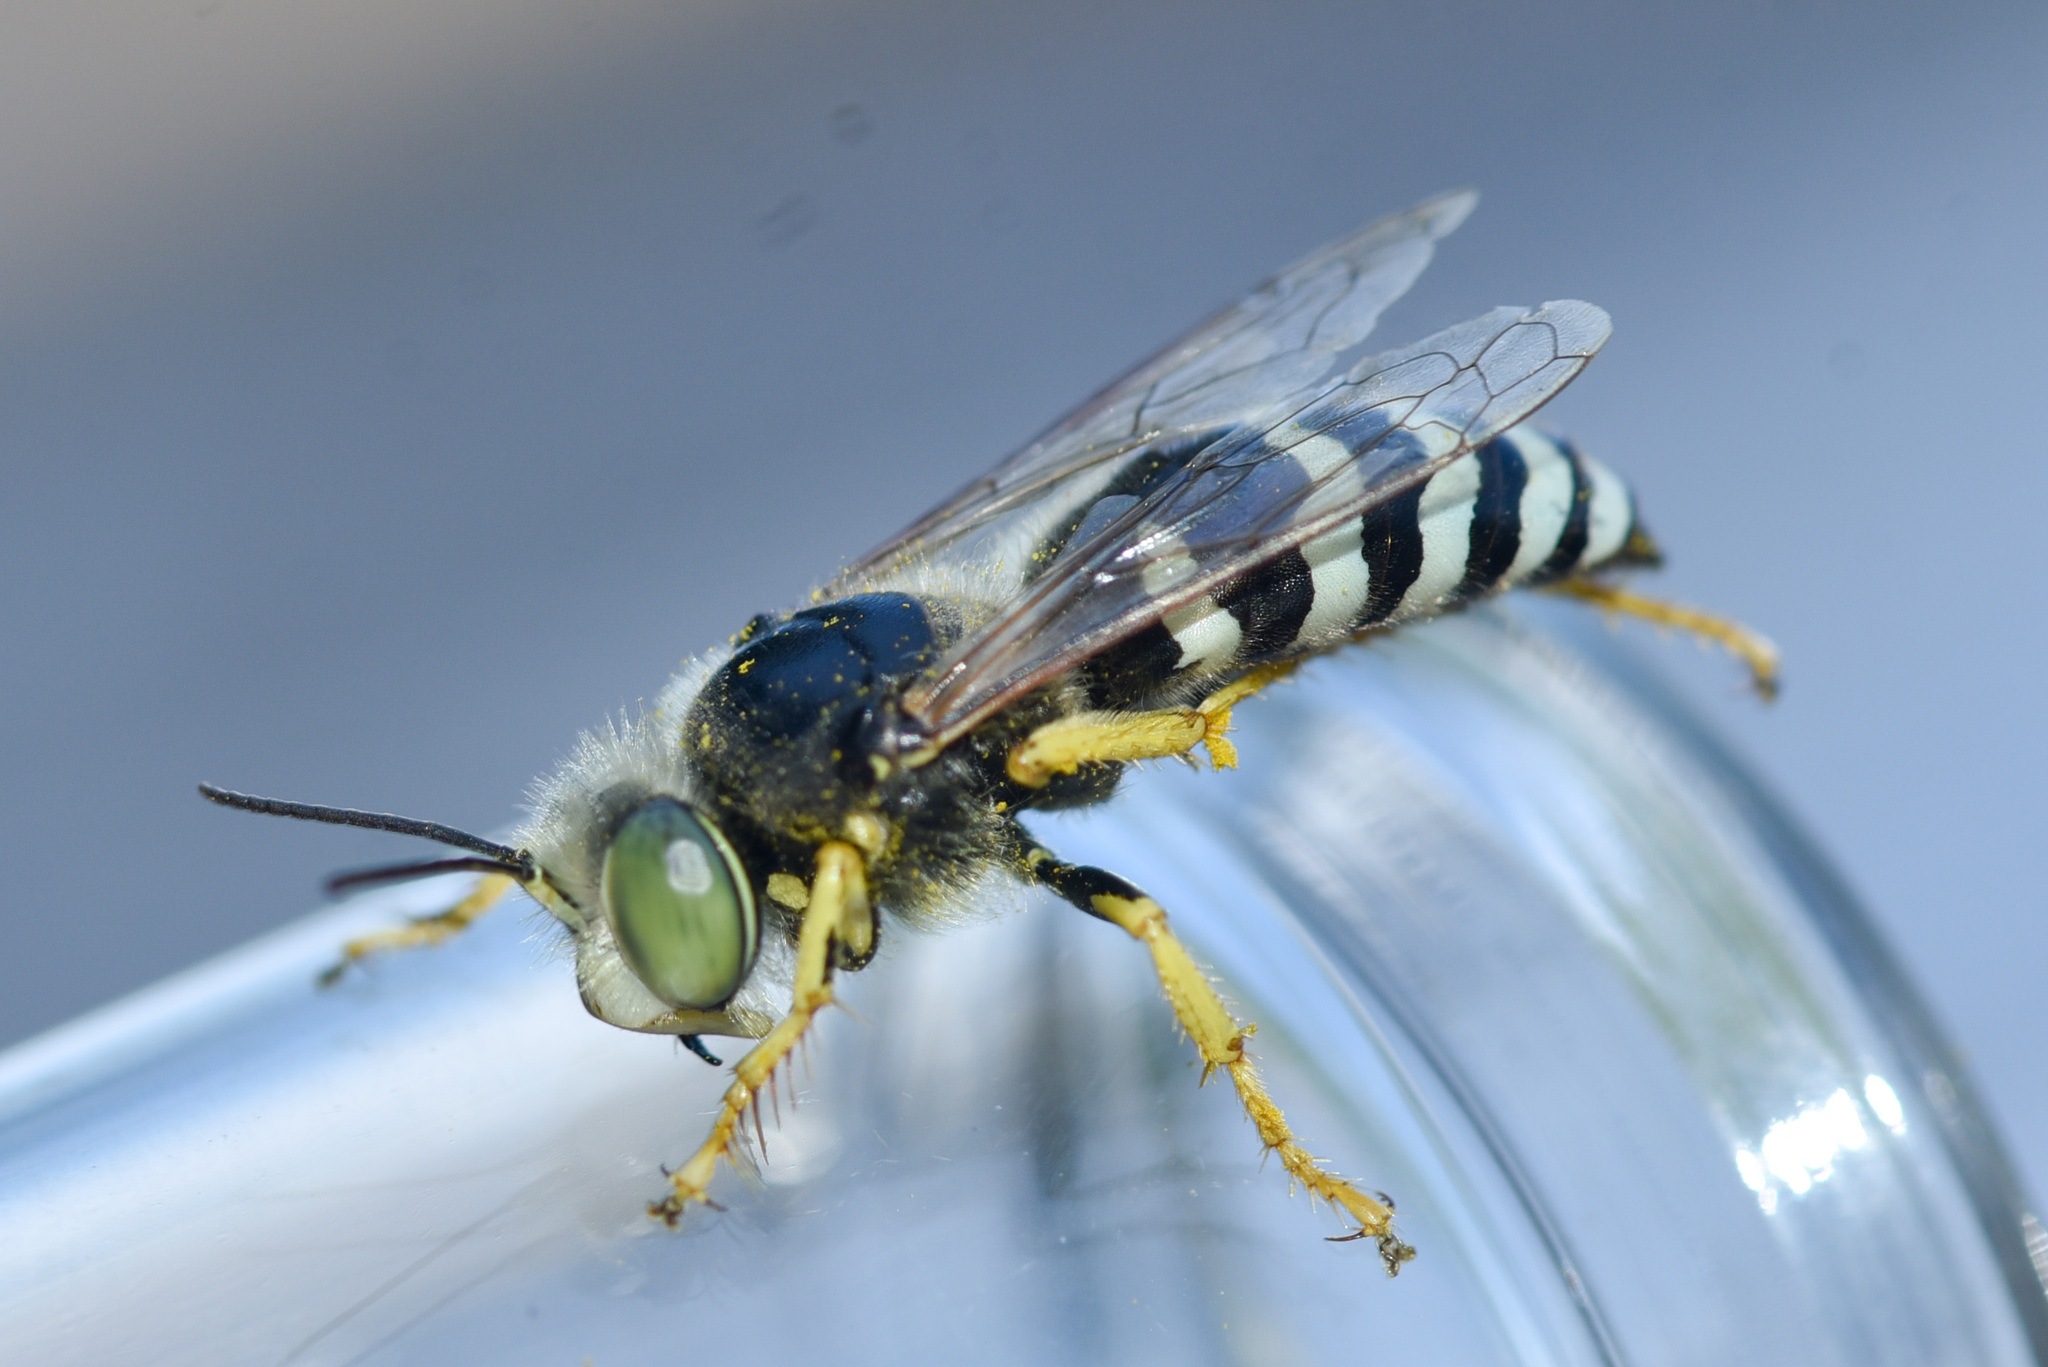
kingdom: Animalia
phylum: Arthropoda
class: Insecta
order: Hymenoptera
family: Crabronidae
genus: Bembix
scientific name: Bembix americana
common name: American sand wasp
